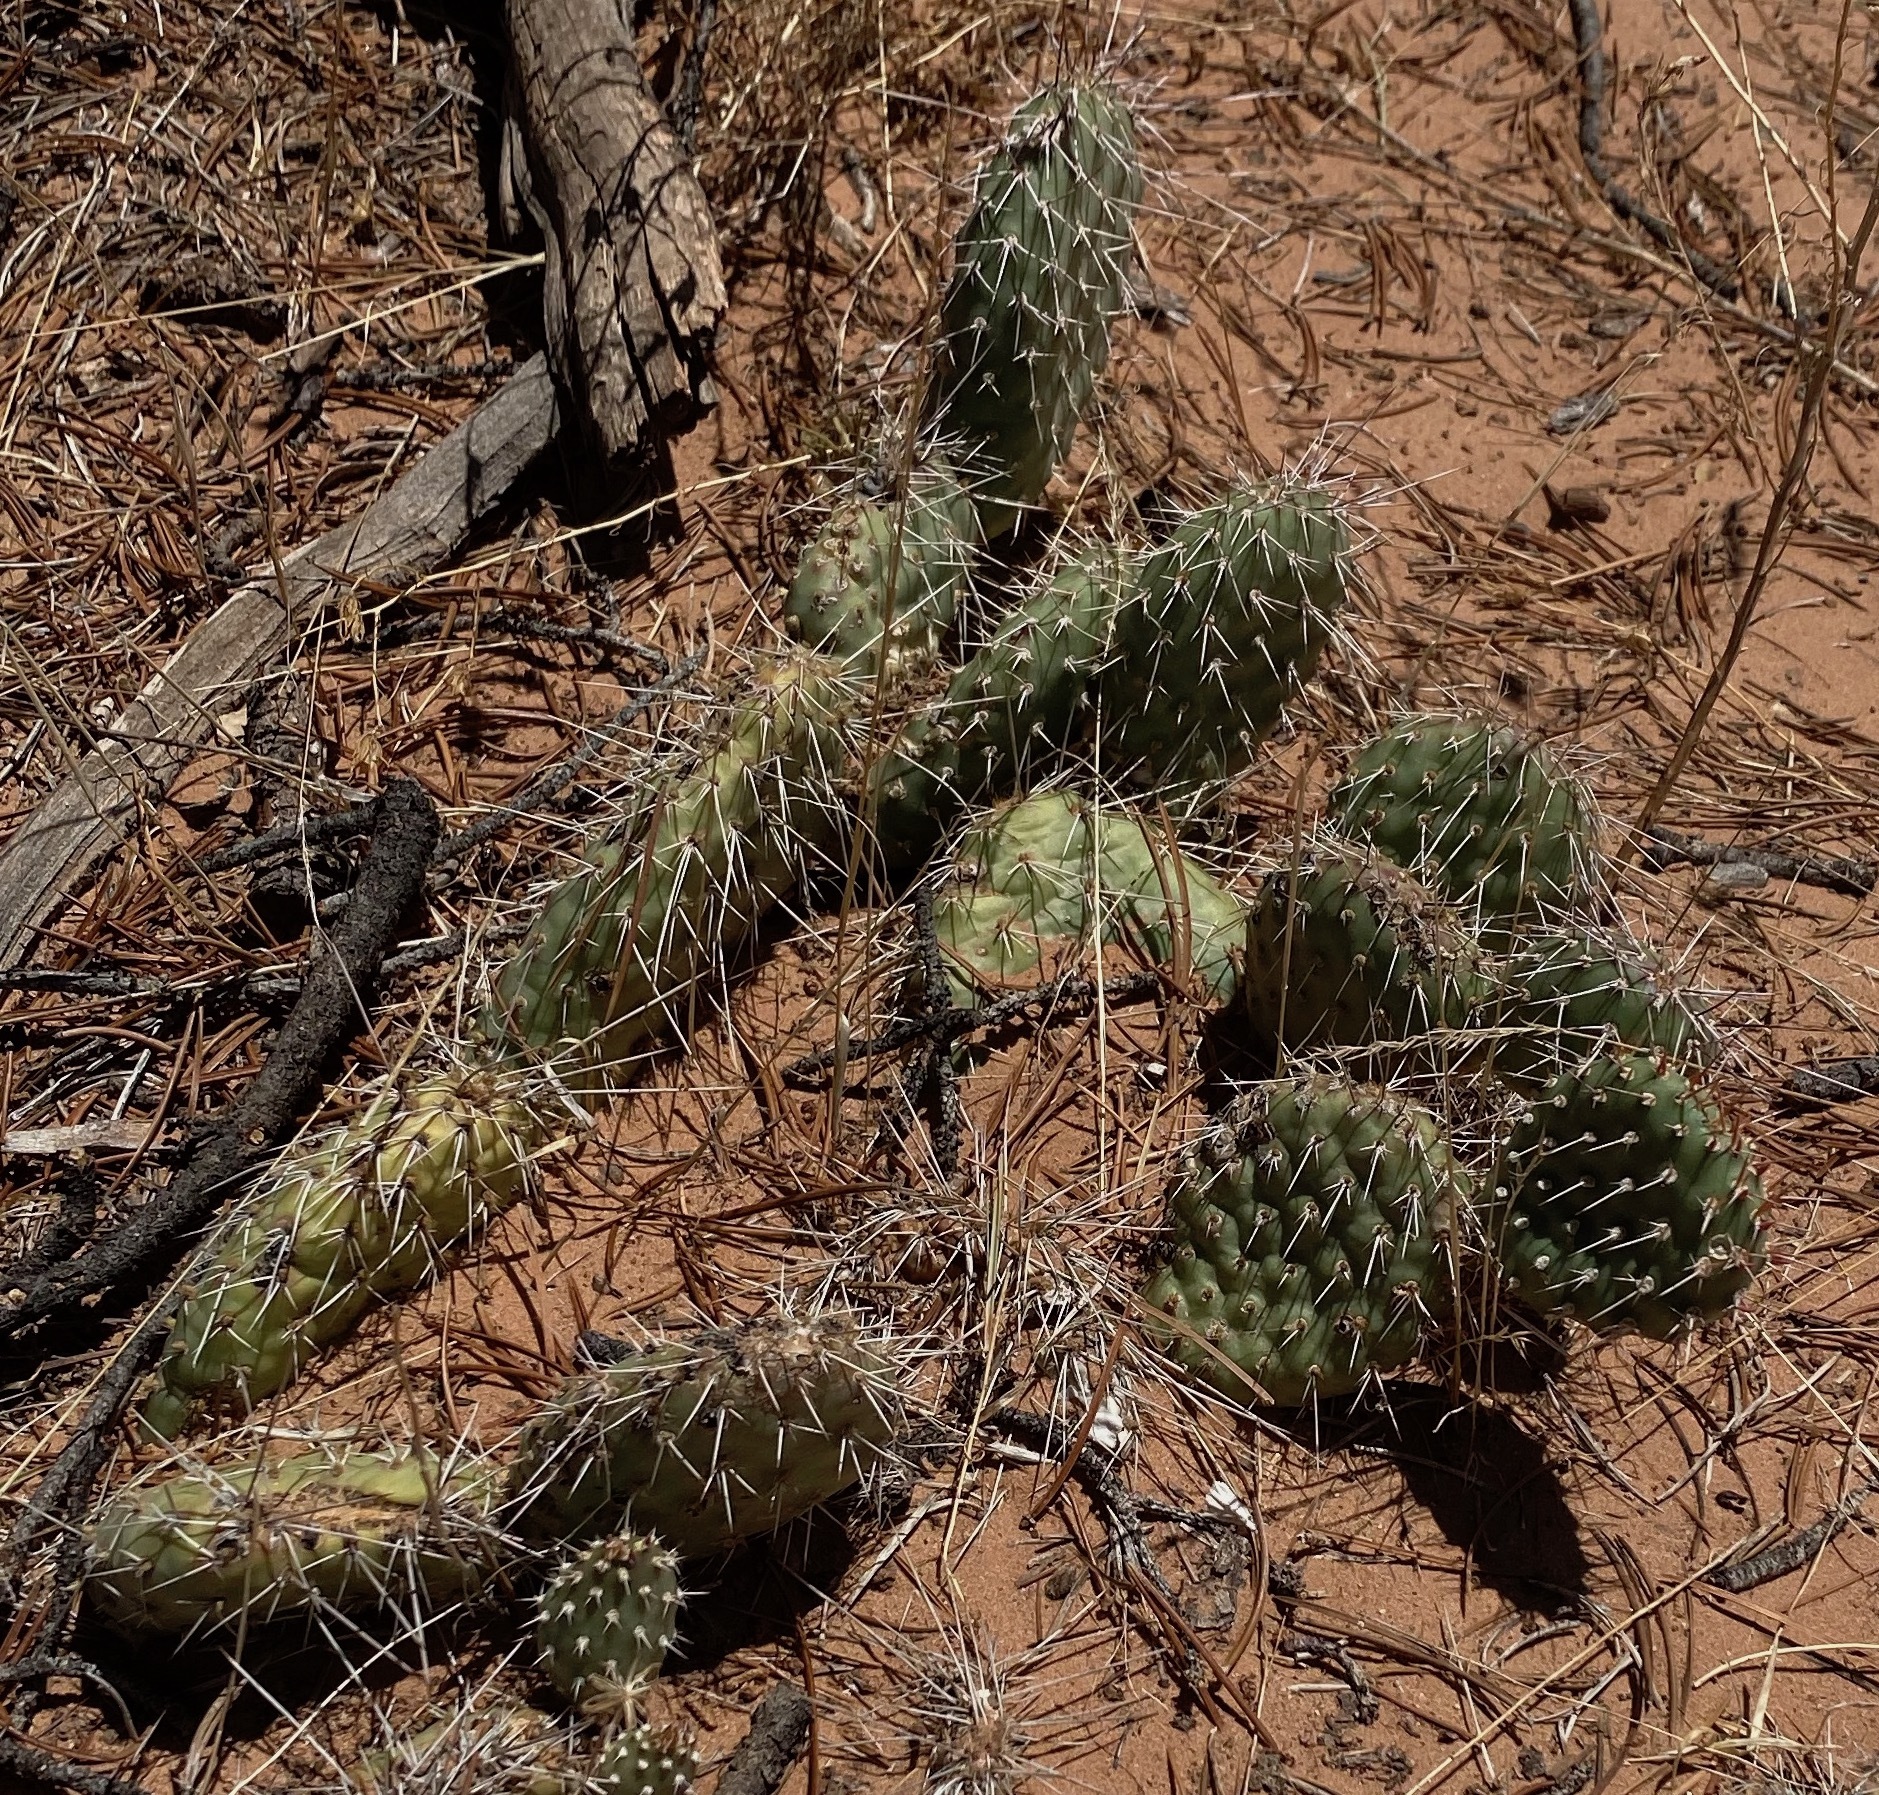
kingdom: Plantae
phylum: Tracheophyta
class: Magnoliopsida
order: Caryophyllales
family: Cactaceae
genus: Opuntia
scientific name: Opuntia polyacantha
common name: Plains prickly-pear
